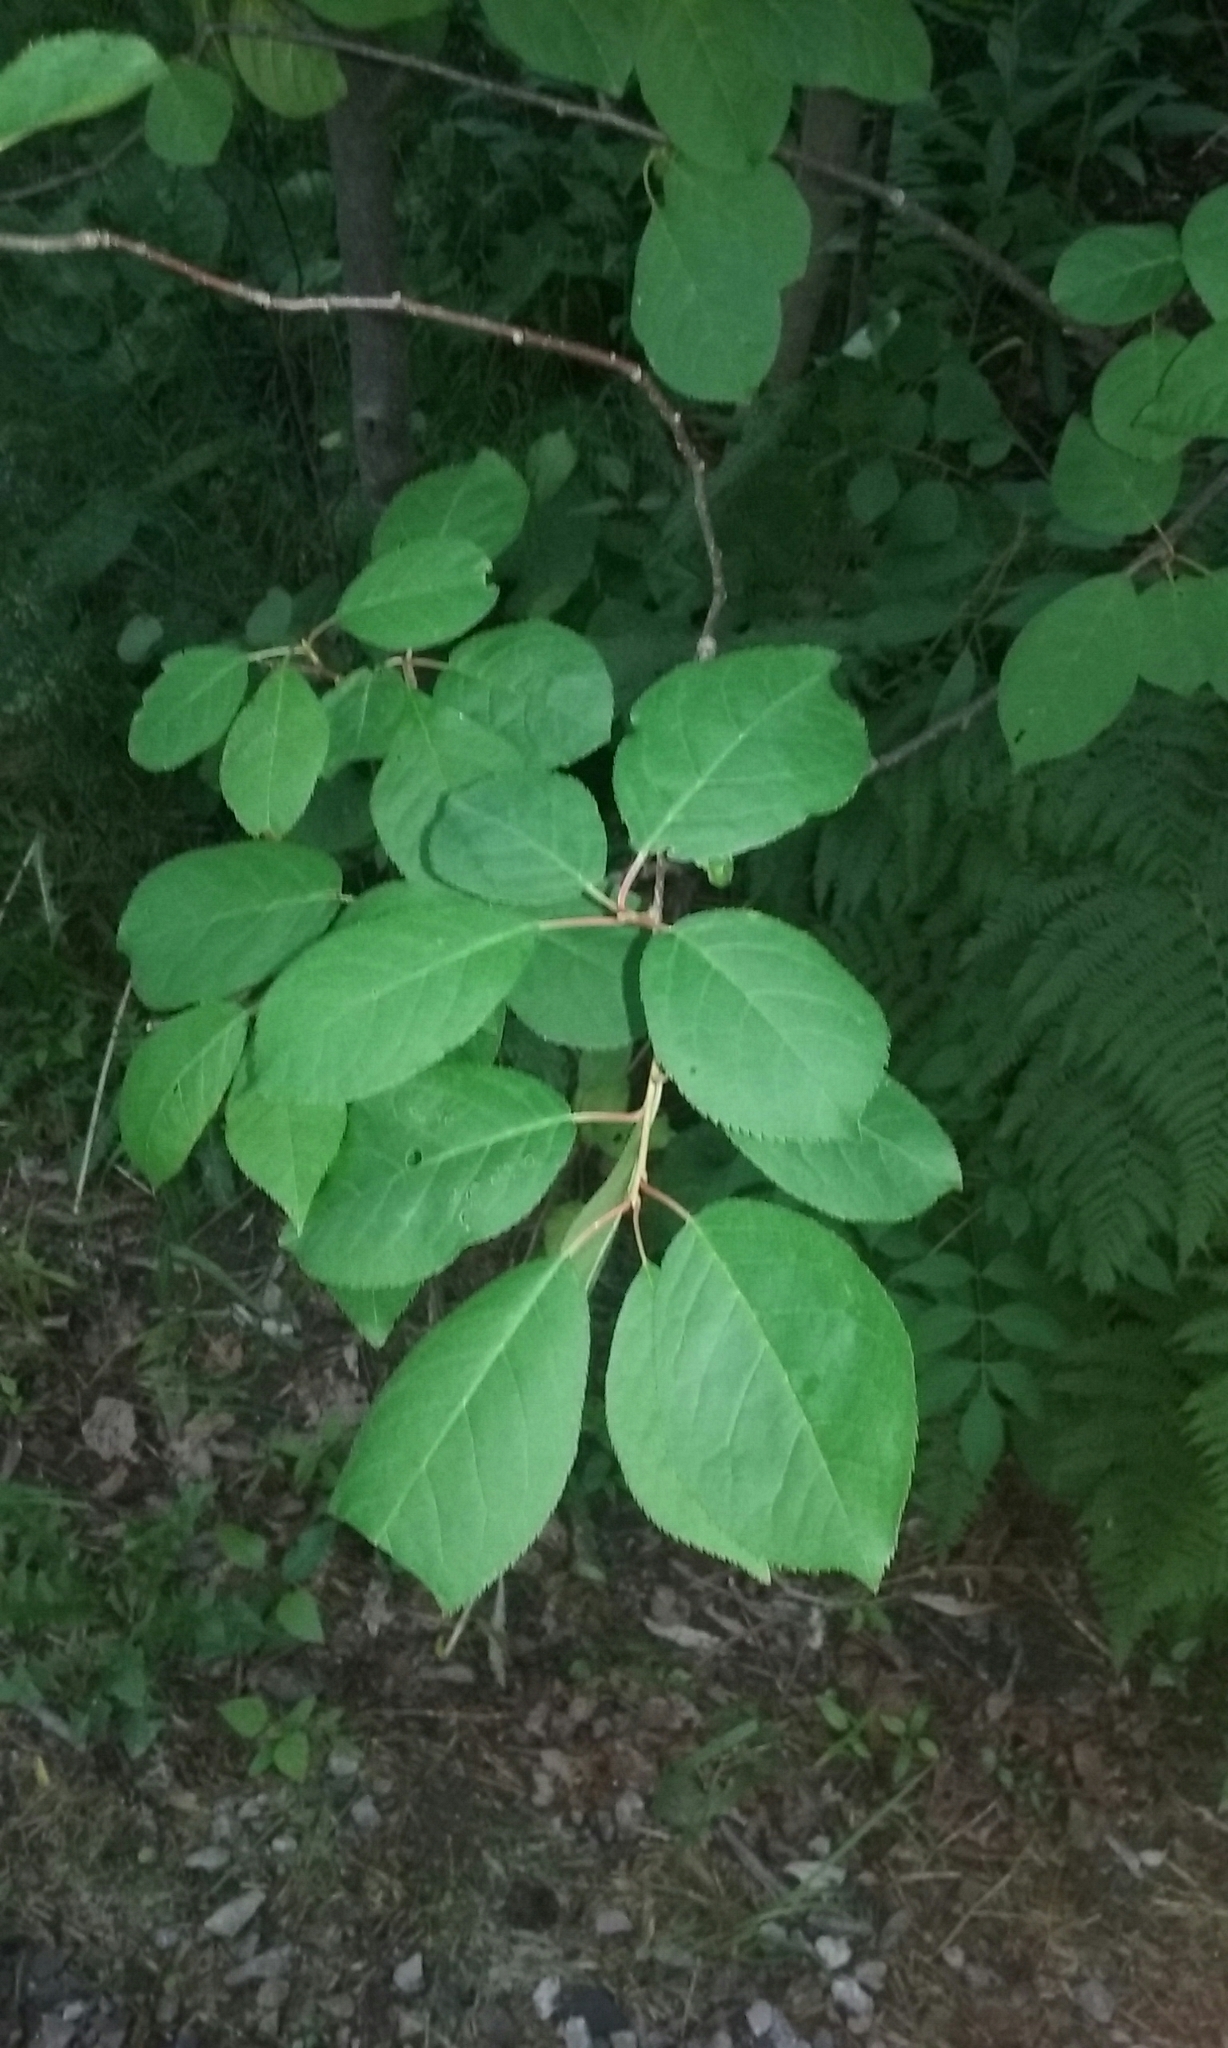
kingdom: Plantae
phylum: Tracheophyta
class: Magnoliopsida
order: Rosales
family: Rosaceae
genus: Prunus
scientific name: Prunus virginiana
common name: Chokecherry
